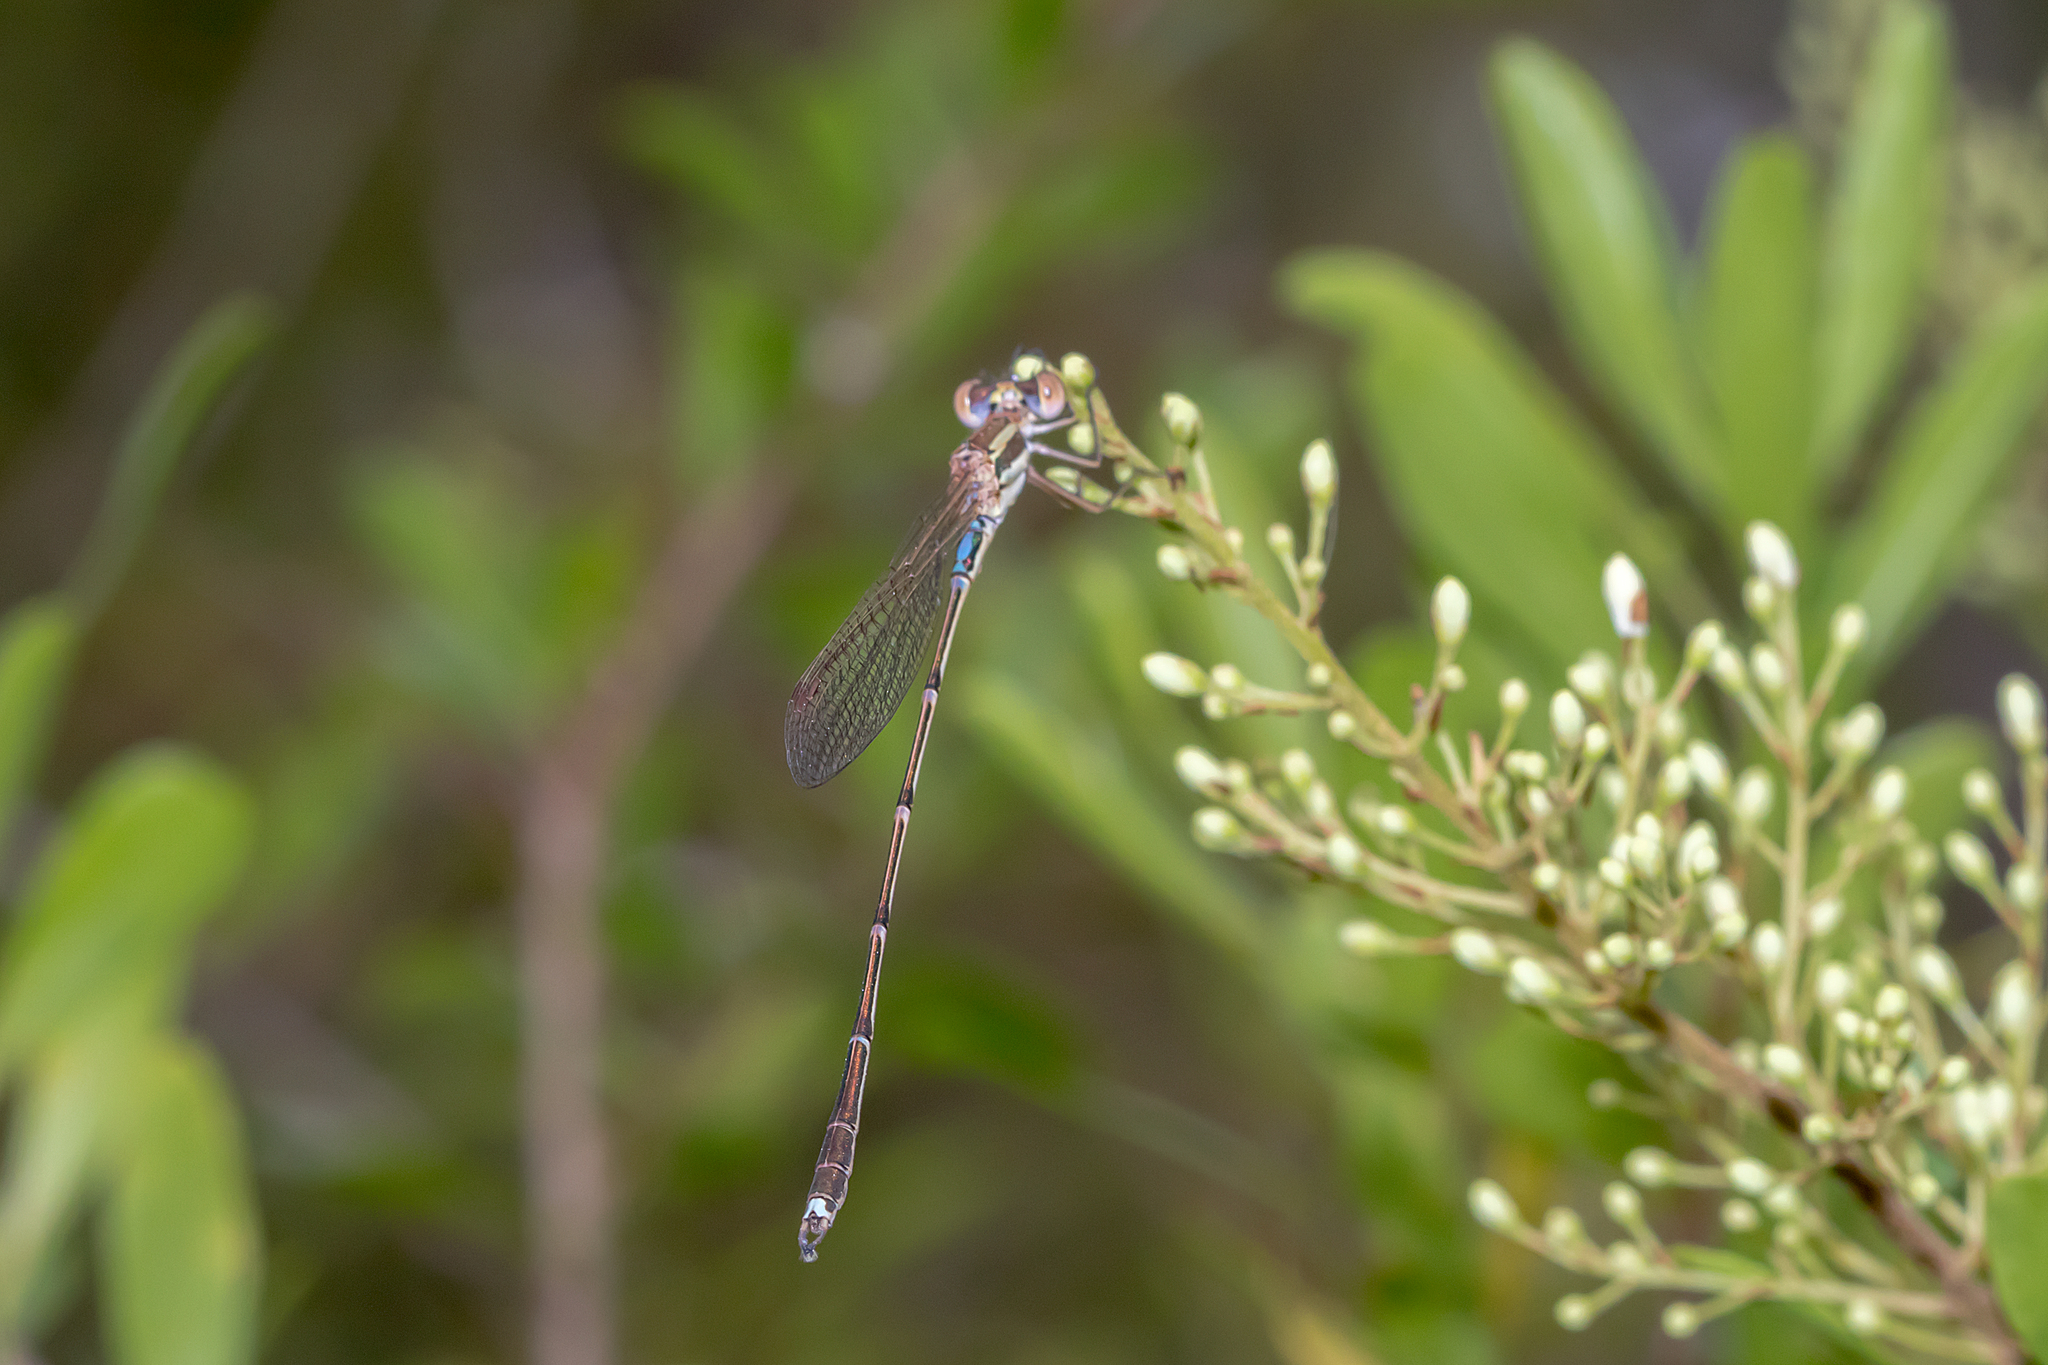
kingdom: Animalia
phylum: Arthropoda
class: Insecta
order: Odonata
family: Lestidae
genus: Austrolestes
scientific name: Austrolestes analis
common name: Slender ringtail
